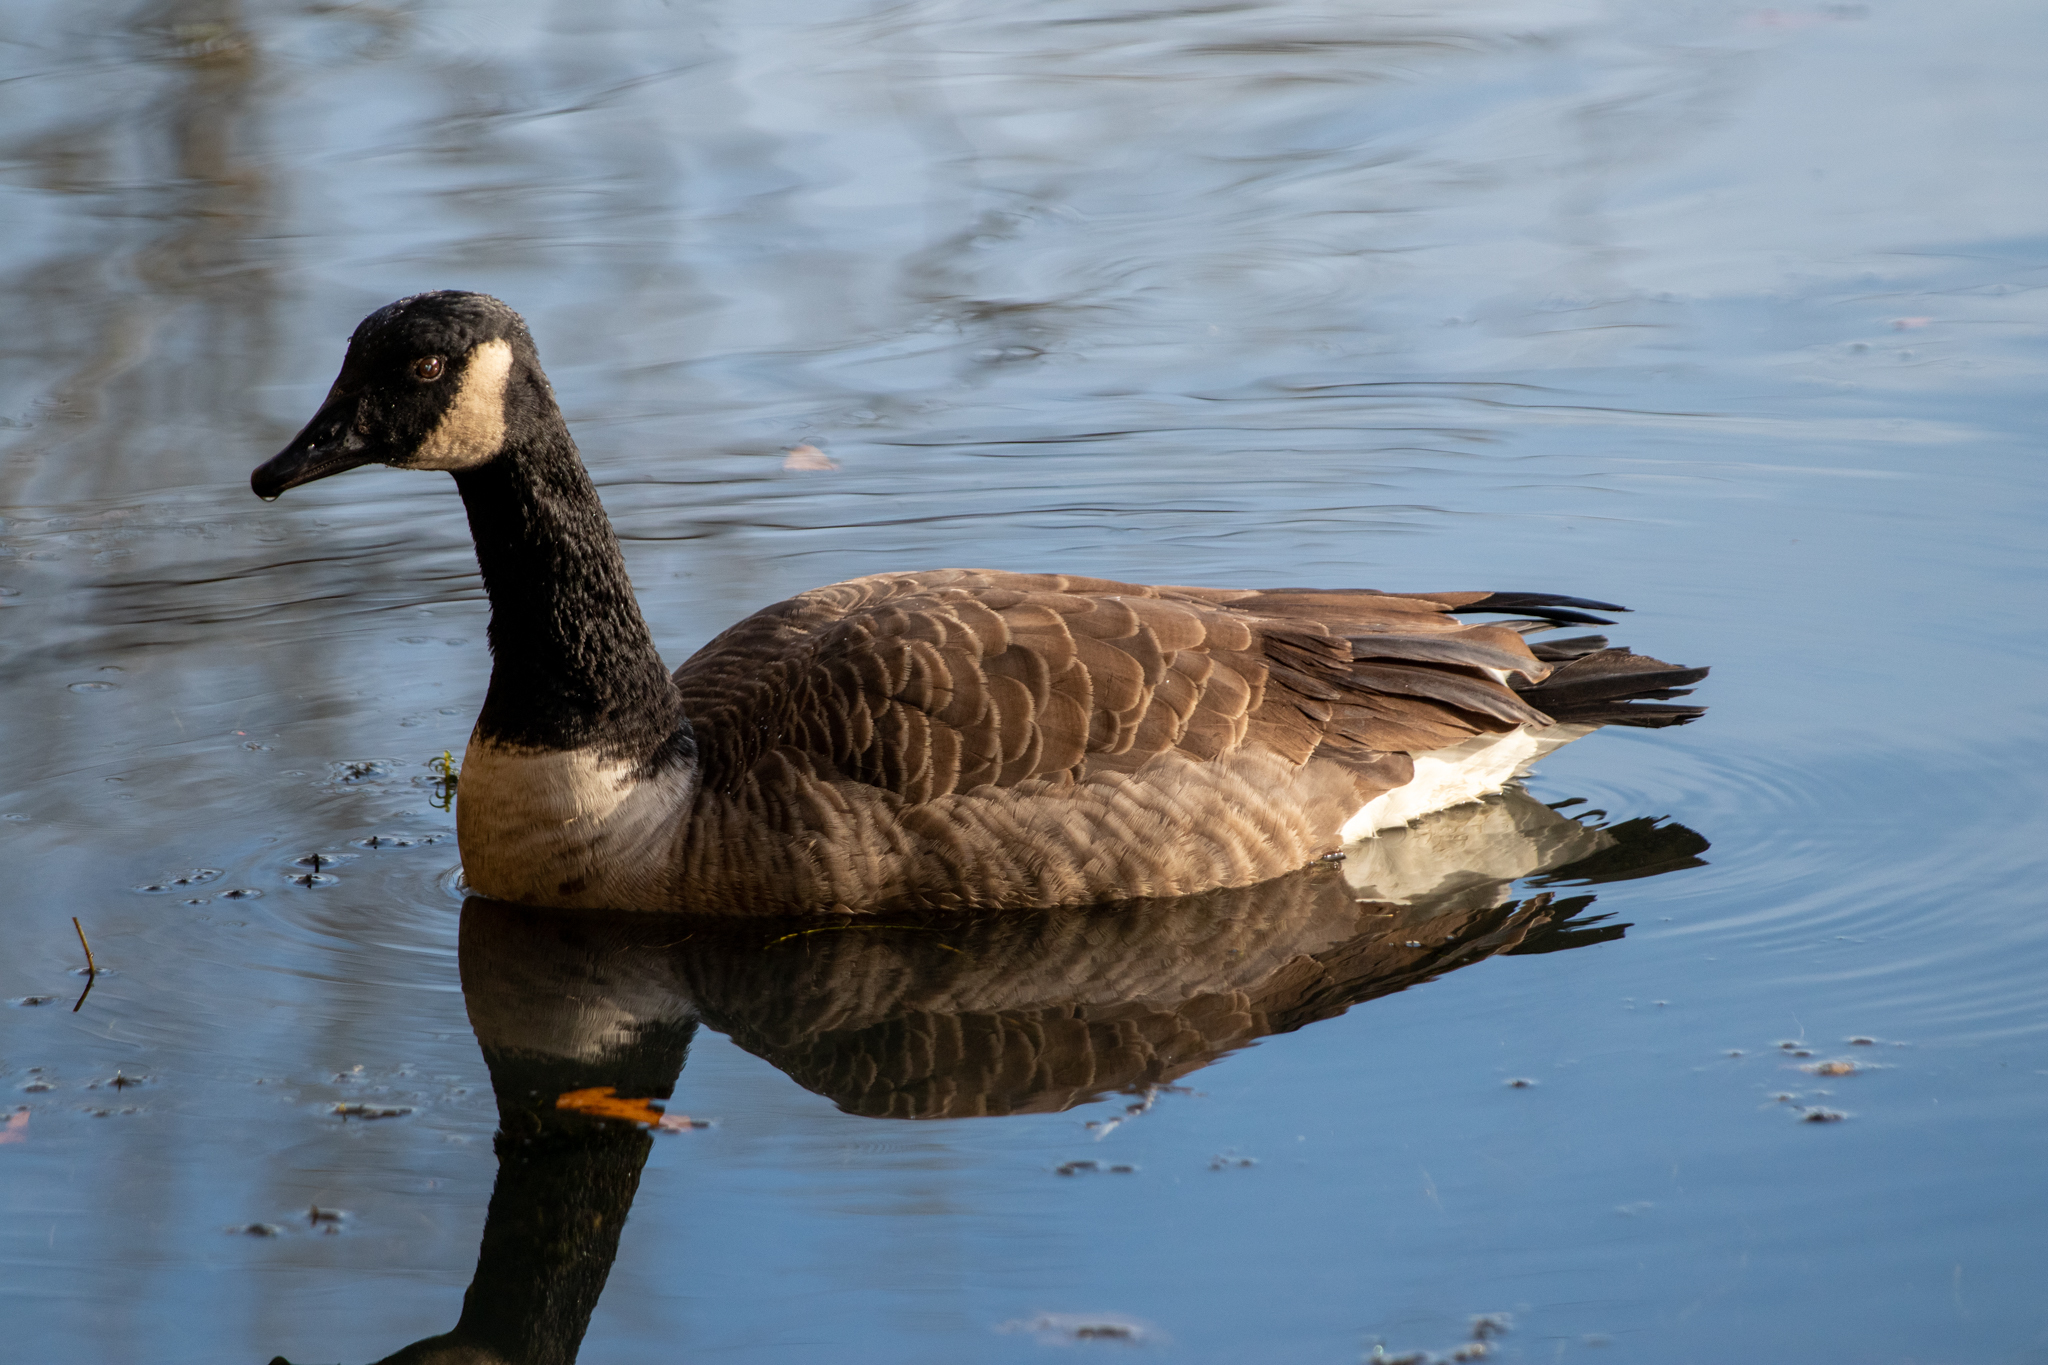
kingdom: Animalia
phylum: Chordata
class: Aves
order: Anseriformes
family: Anatidae
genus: Branta
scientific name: Branta canadensis
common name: Canada goose
